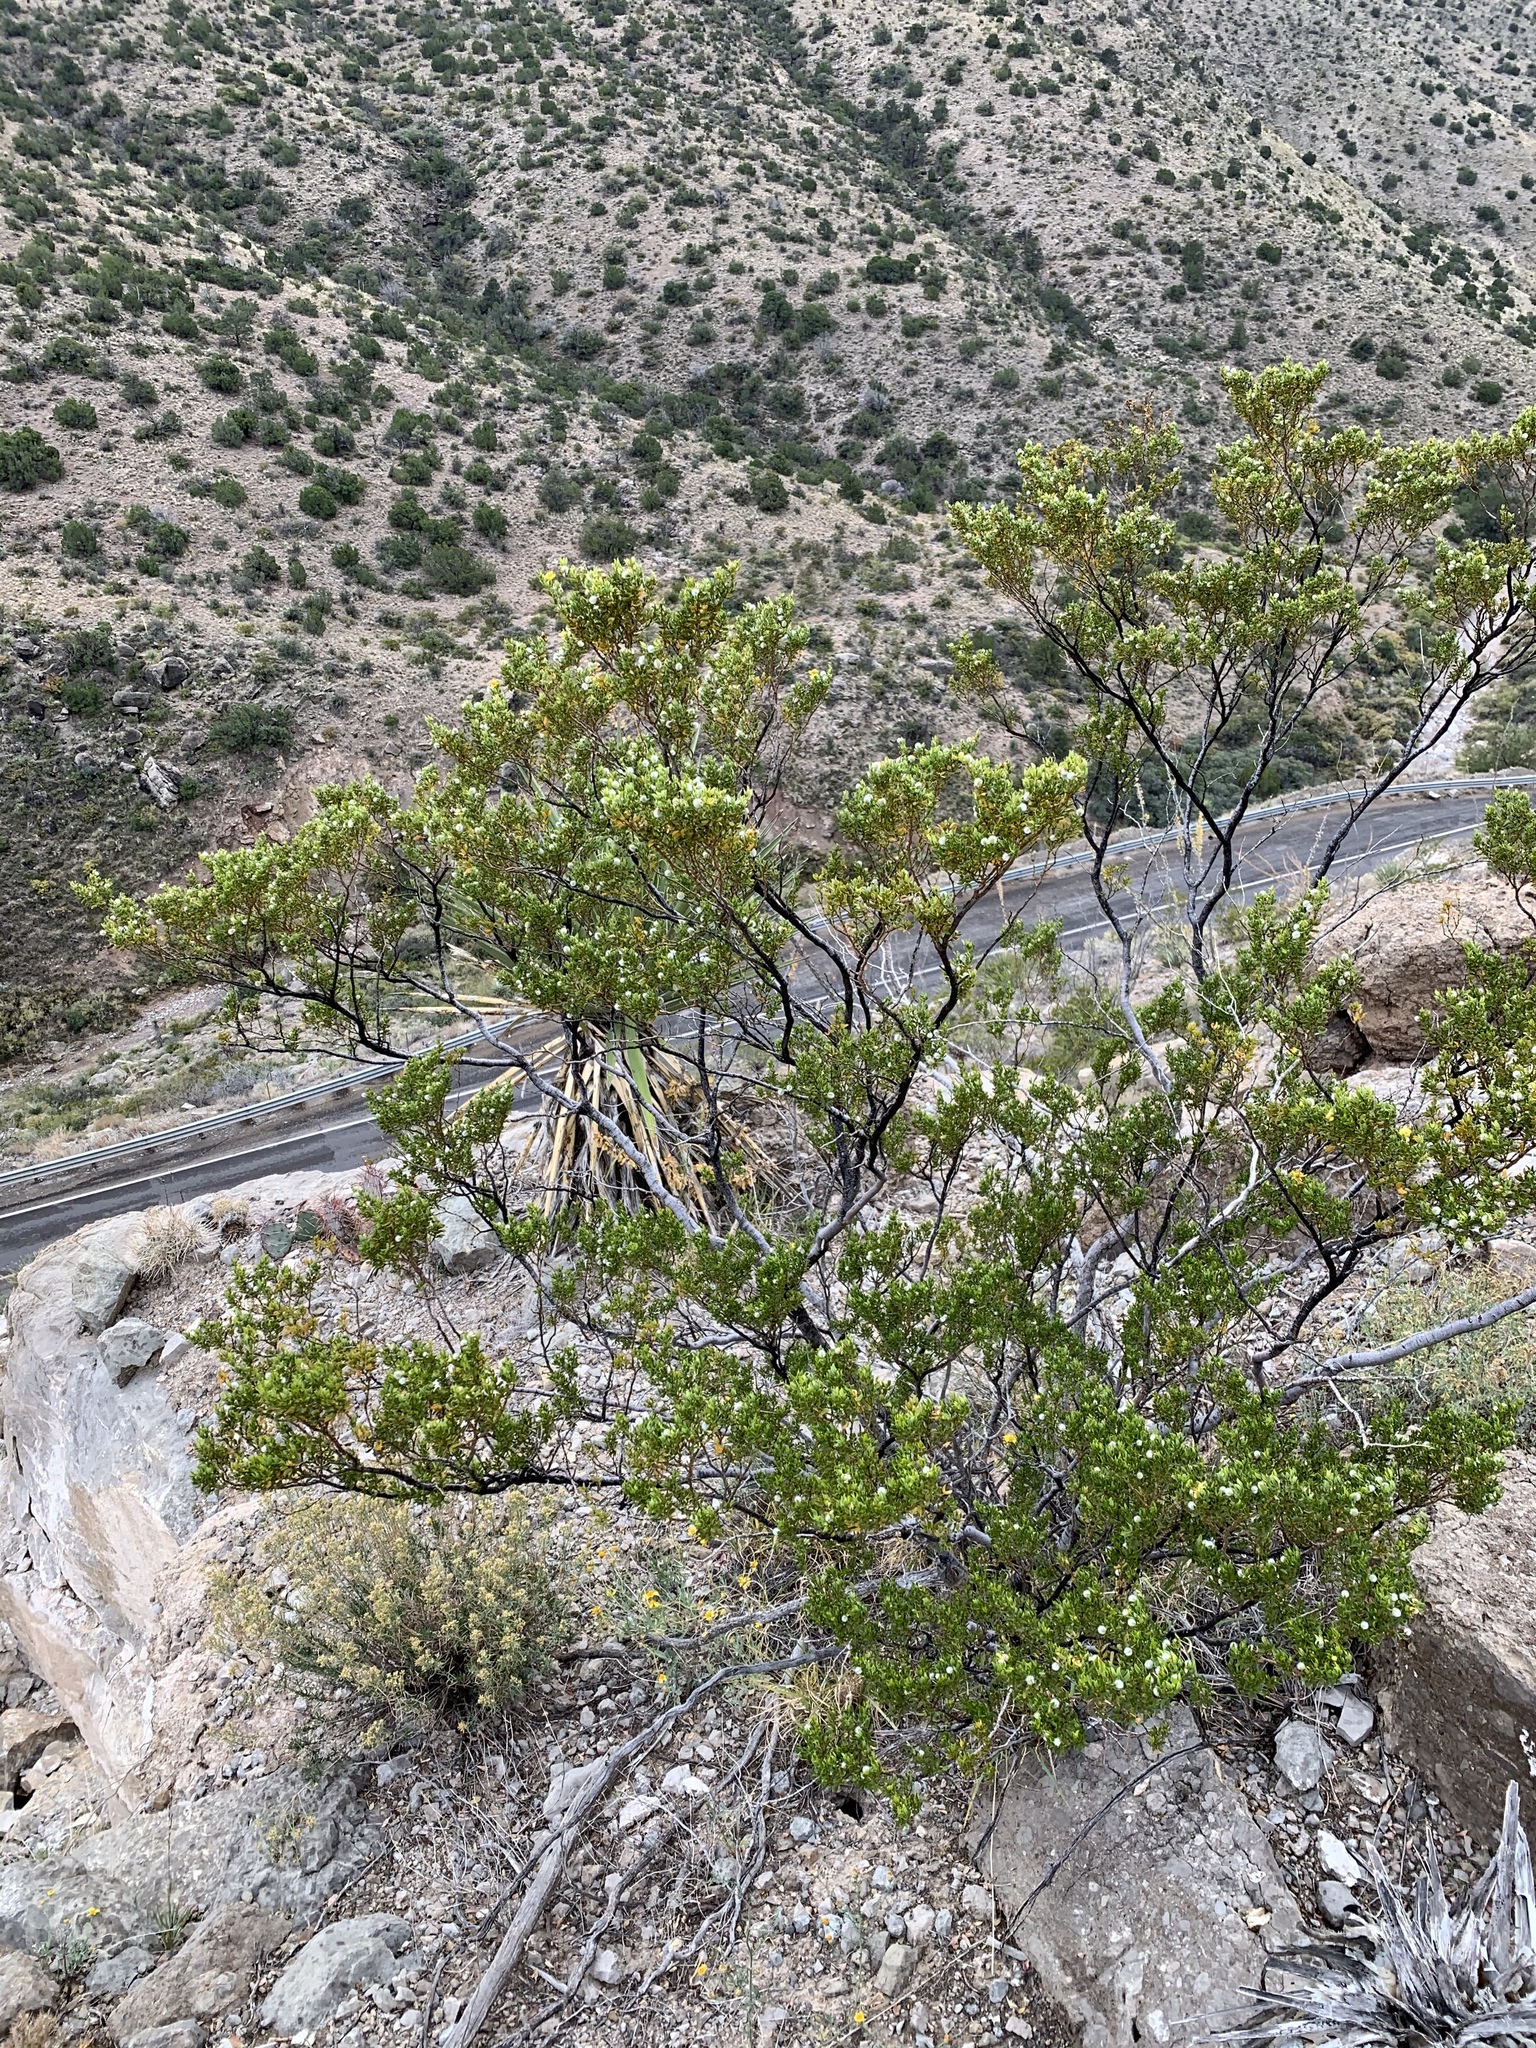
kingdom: Plantae
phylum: Tracheophyta
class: Magnoliopsida
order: Zygophyllales
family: Zygophyllaceae
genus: Larrea
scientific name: Larrea tridentata
